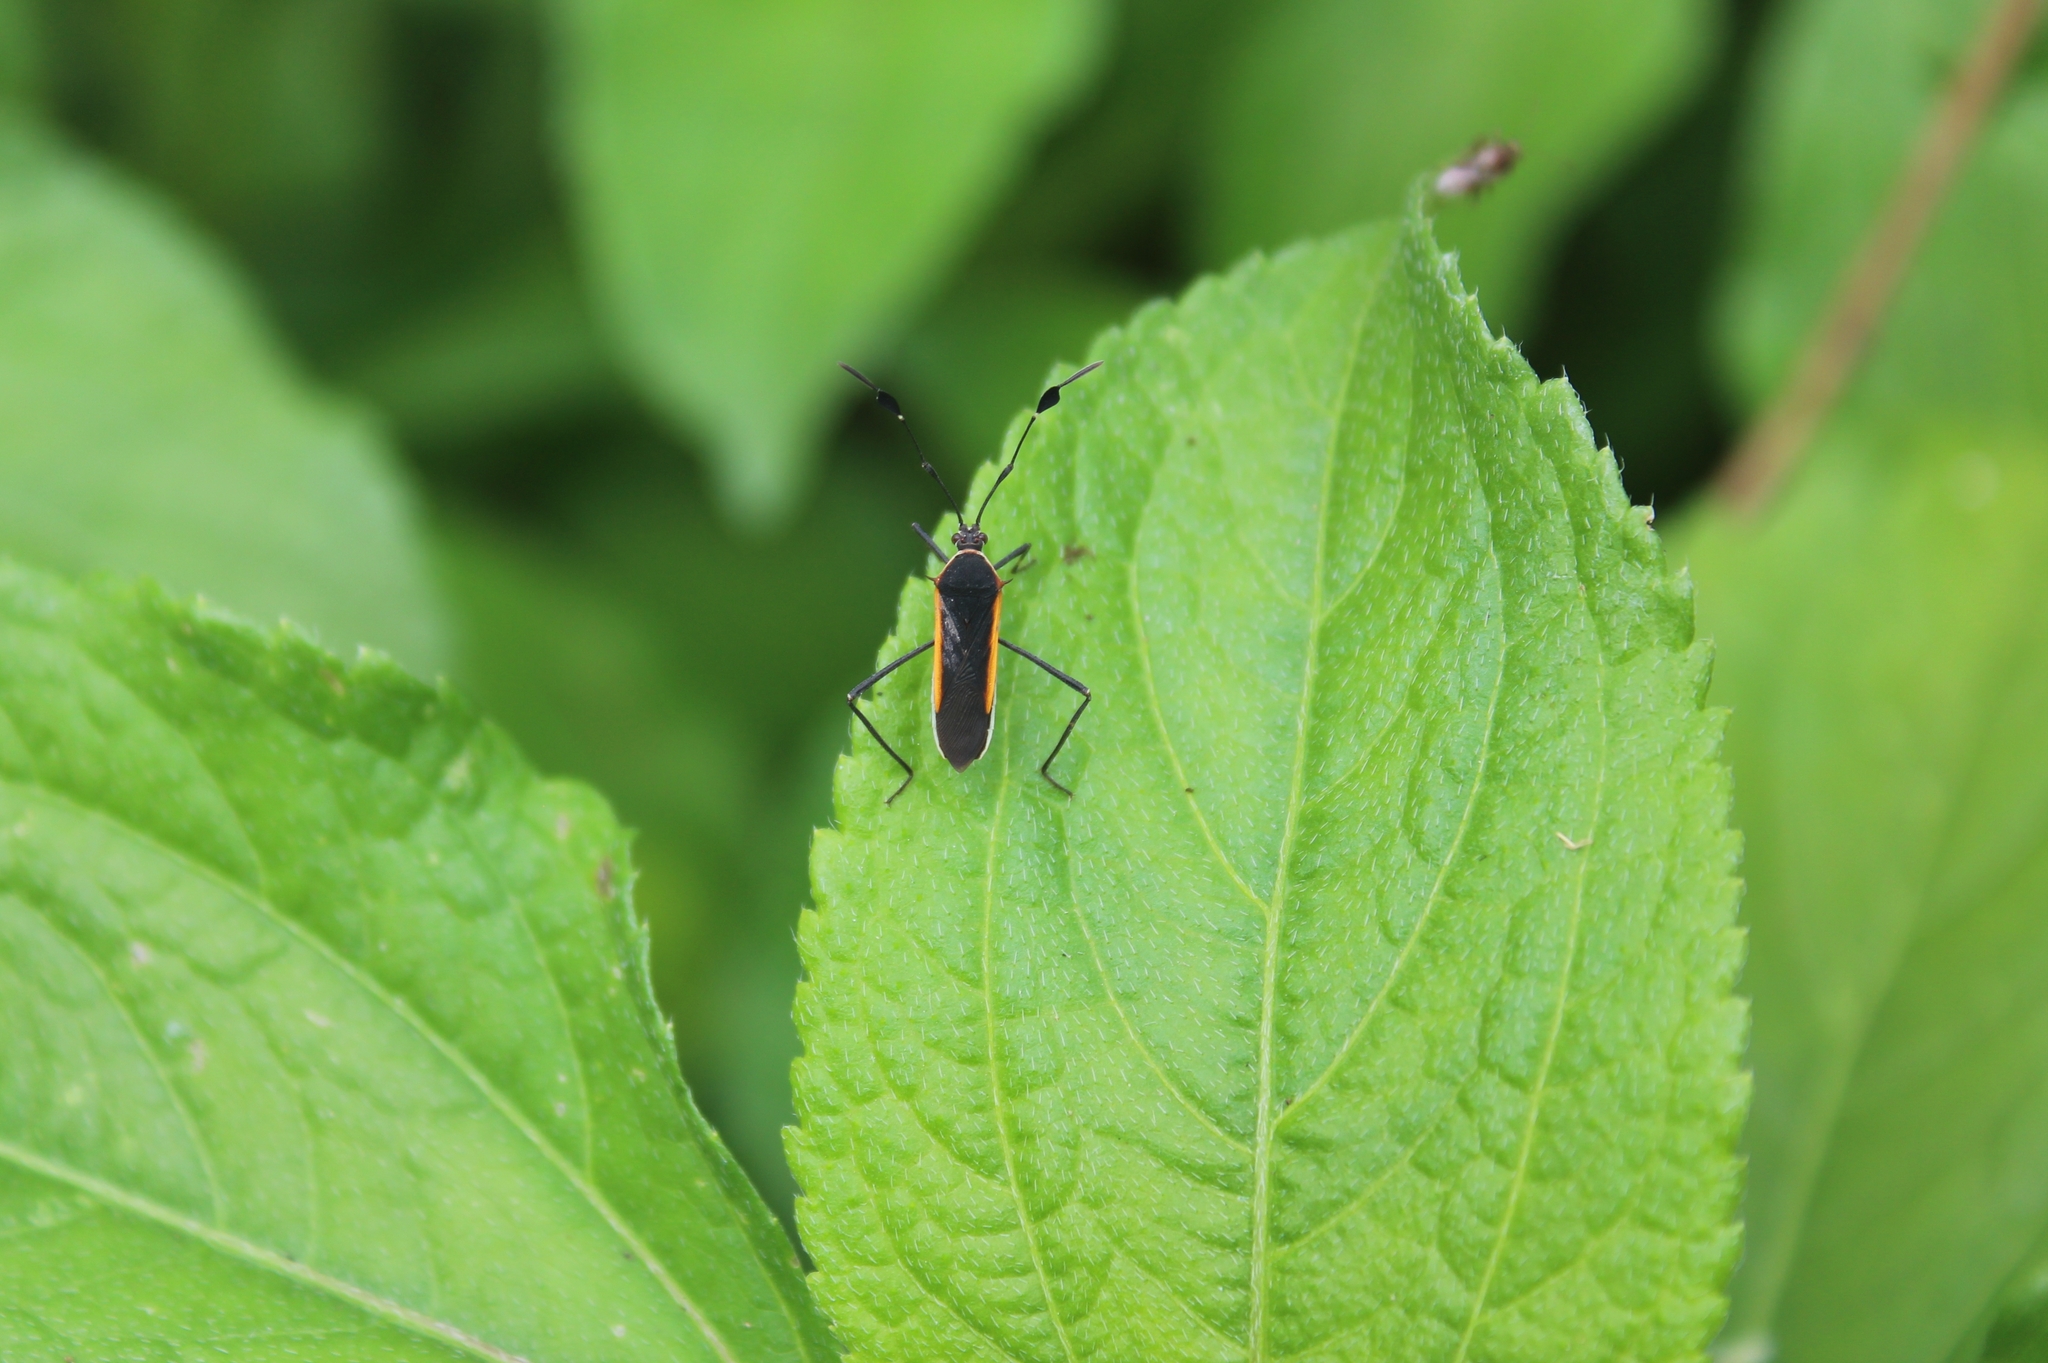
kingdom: Animalia
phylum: Arthropoda
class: Insecta
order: Hemiptera
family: Coreidae
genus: Plapigus
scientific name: Plapigus circumcinctus
